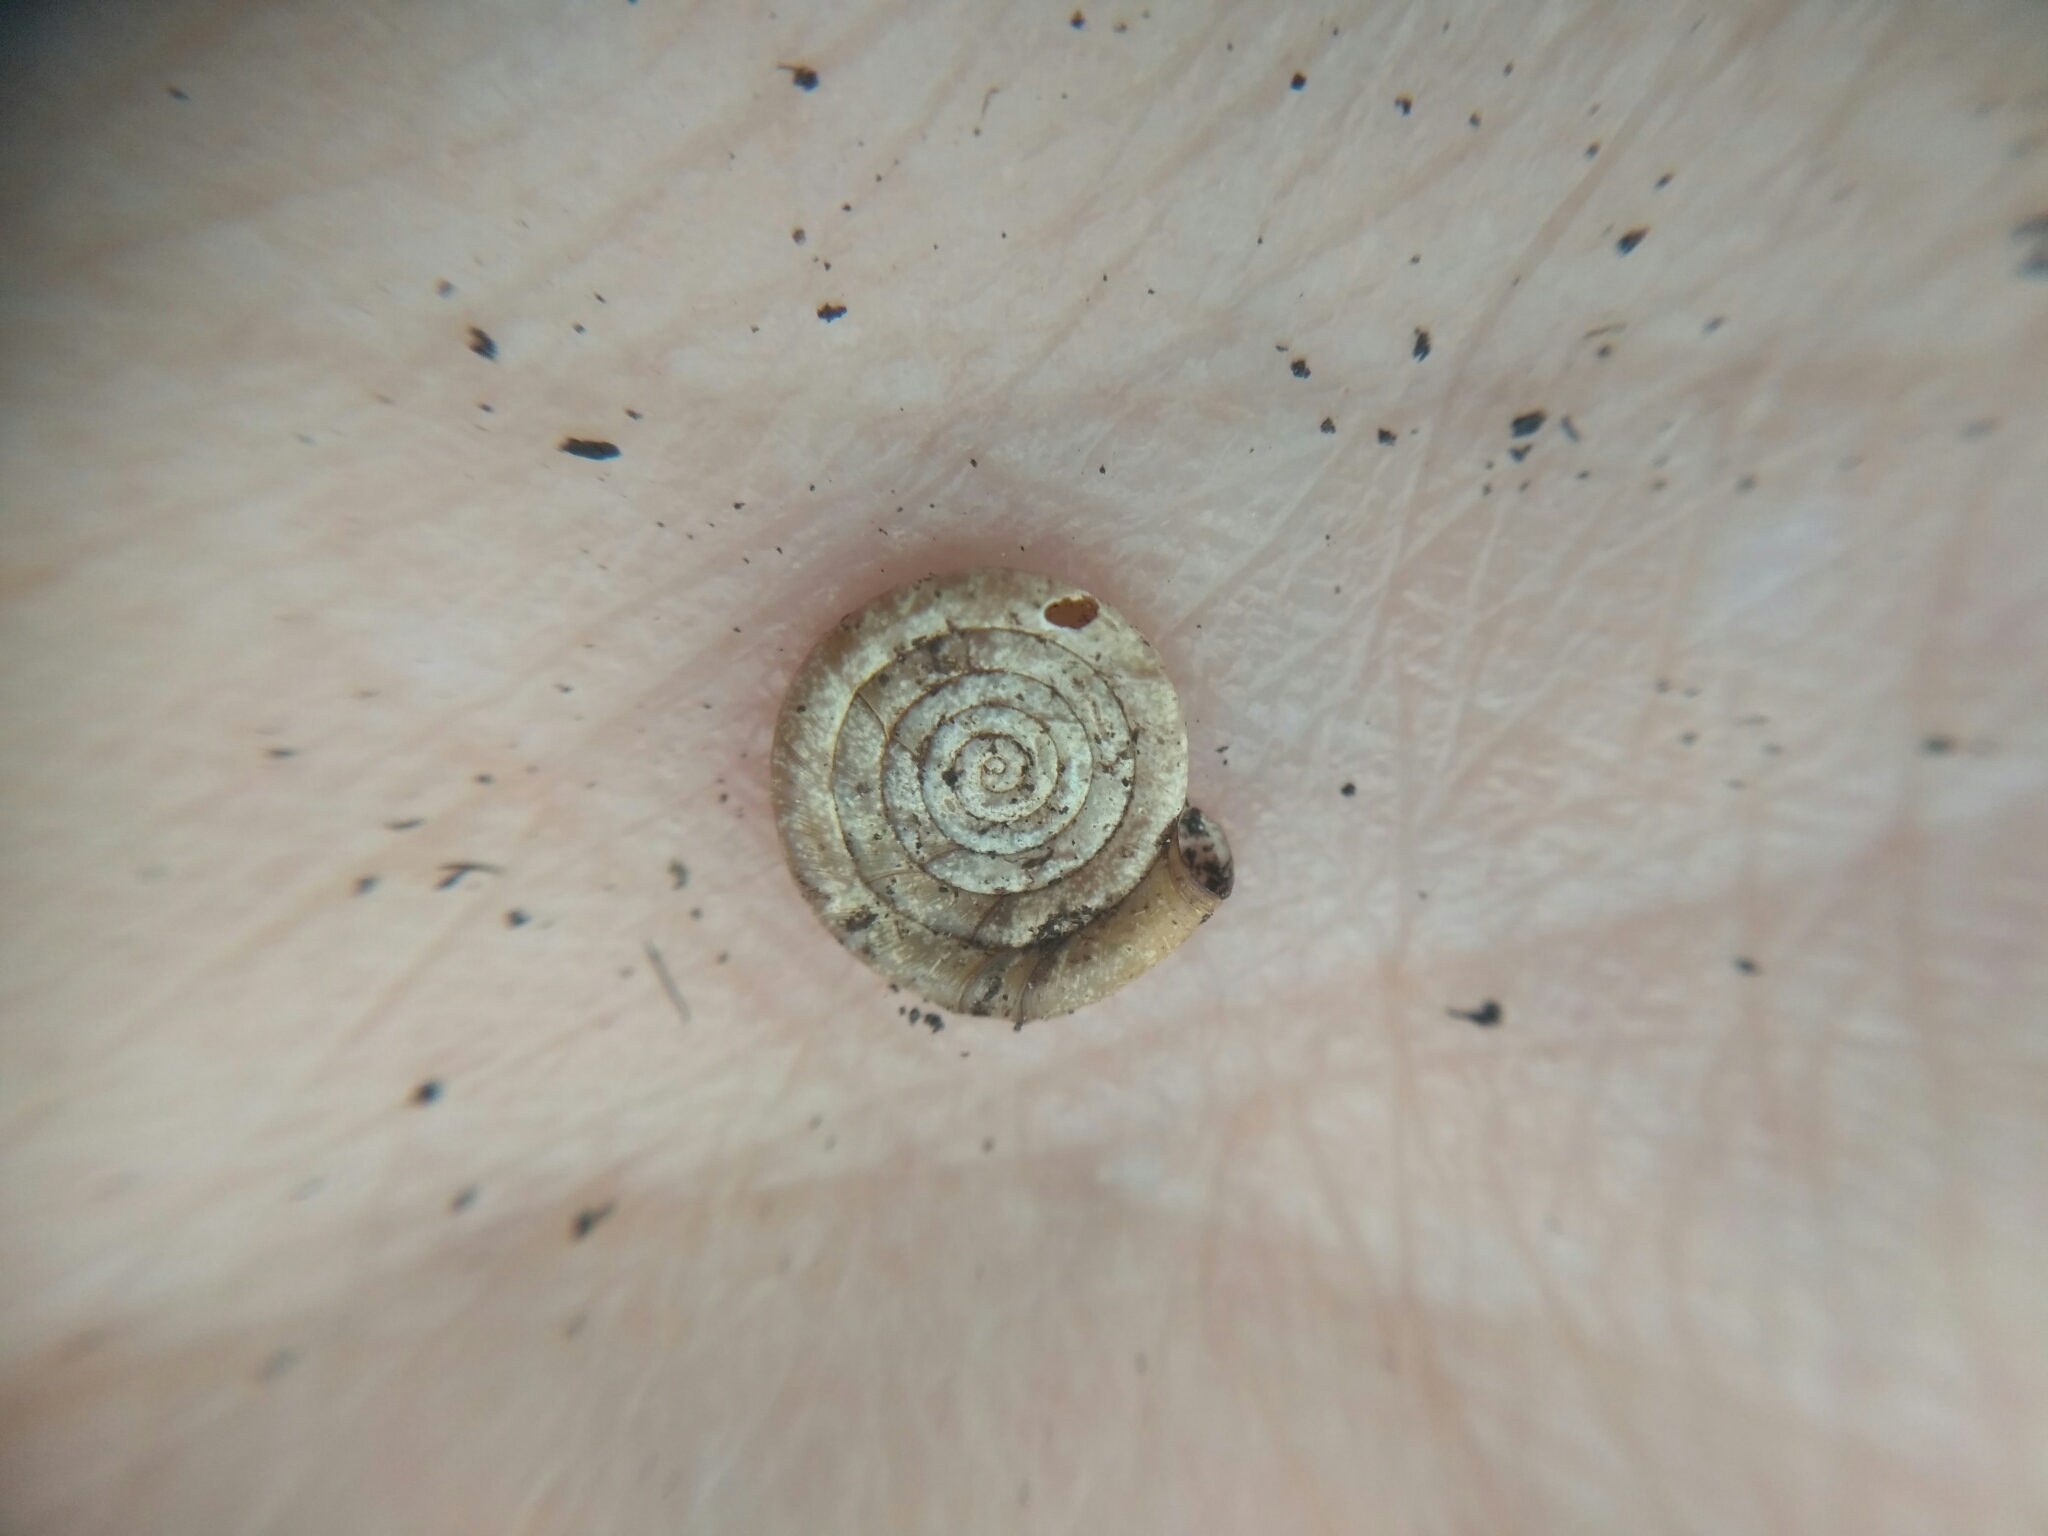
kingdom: Animalia
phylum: Mollusca
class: Gastropoda
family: Planorbidae
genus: Anisus
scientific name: Anisus septemgyratus
